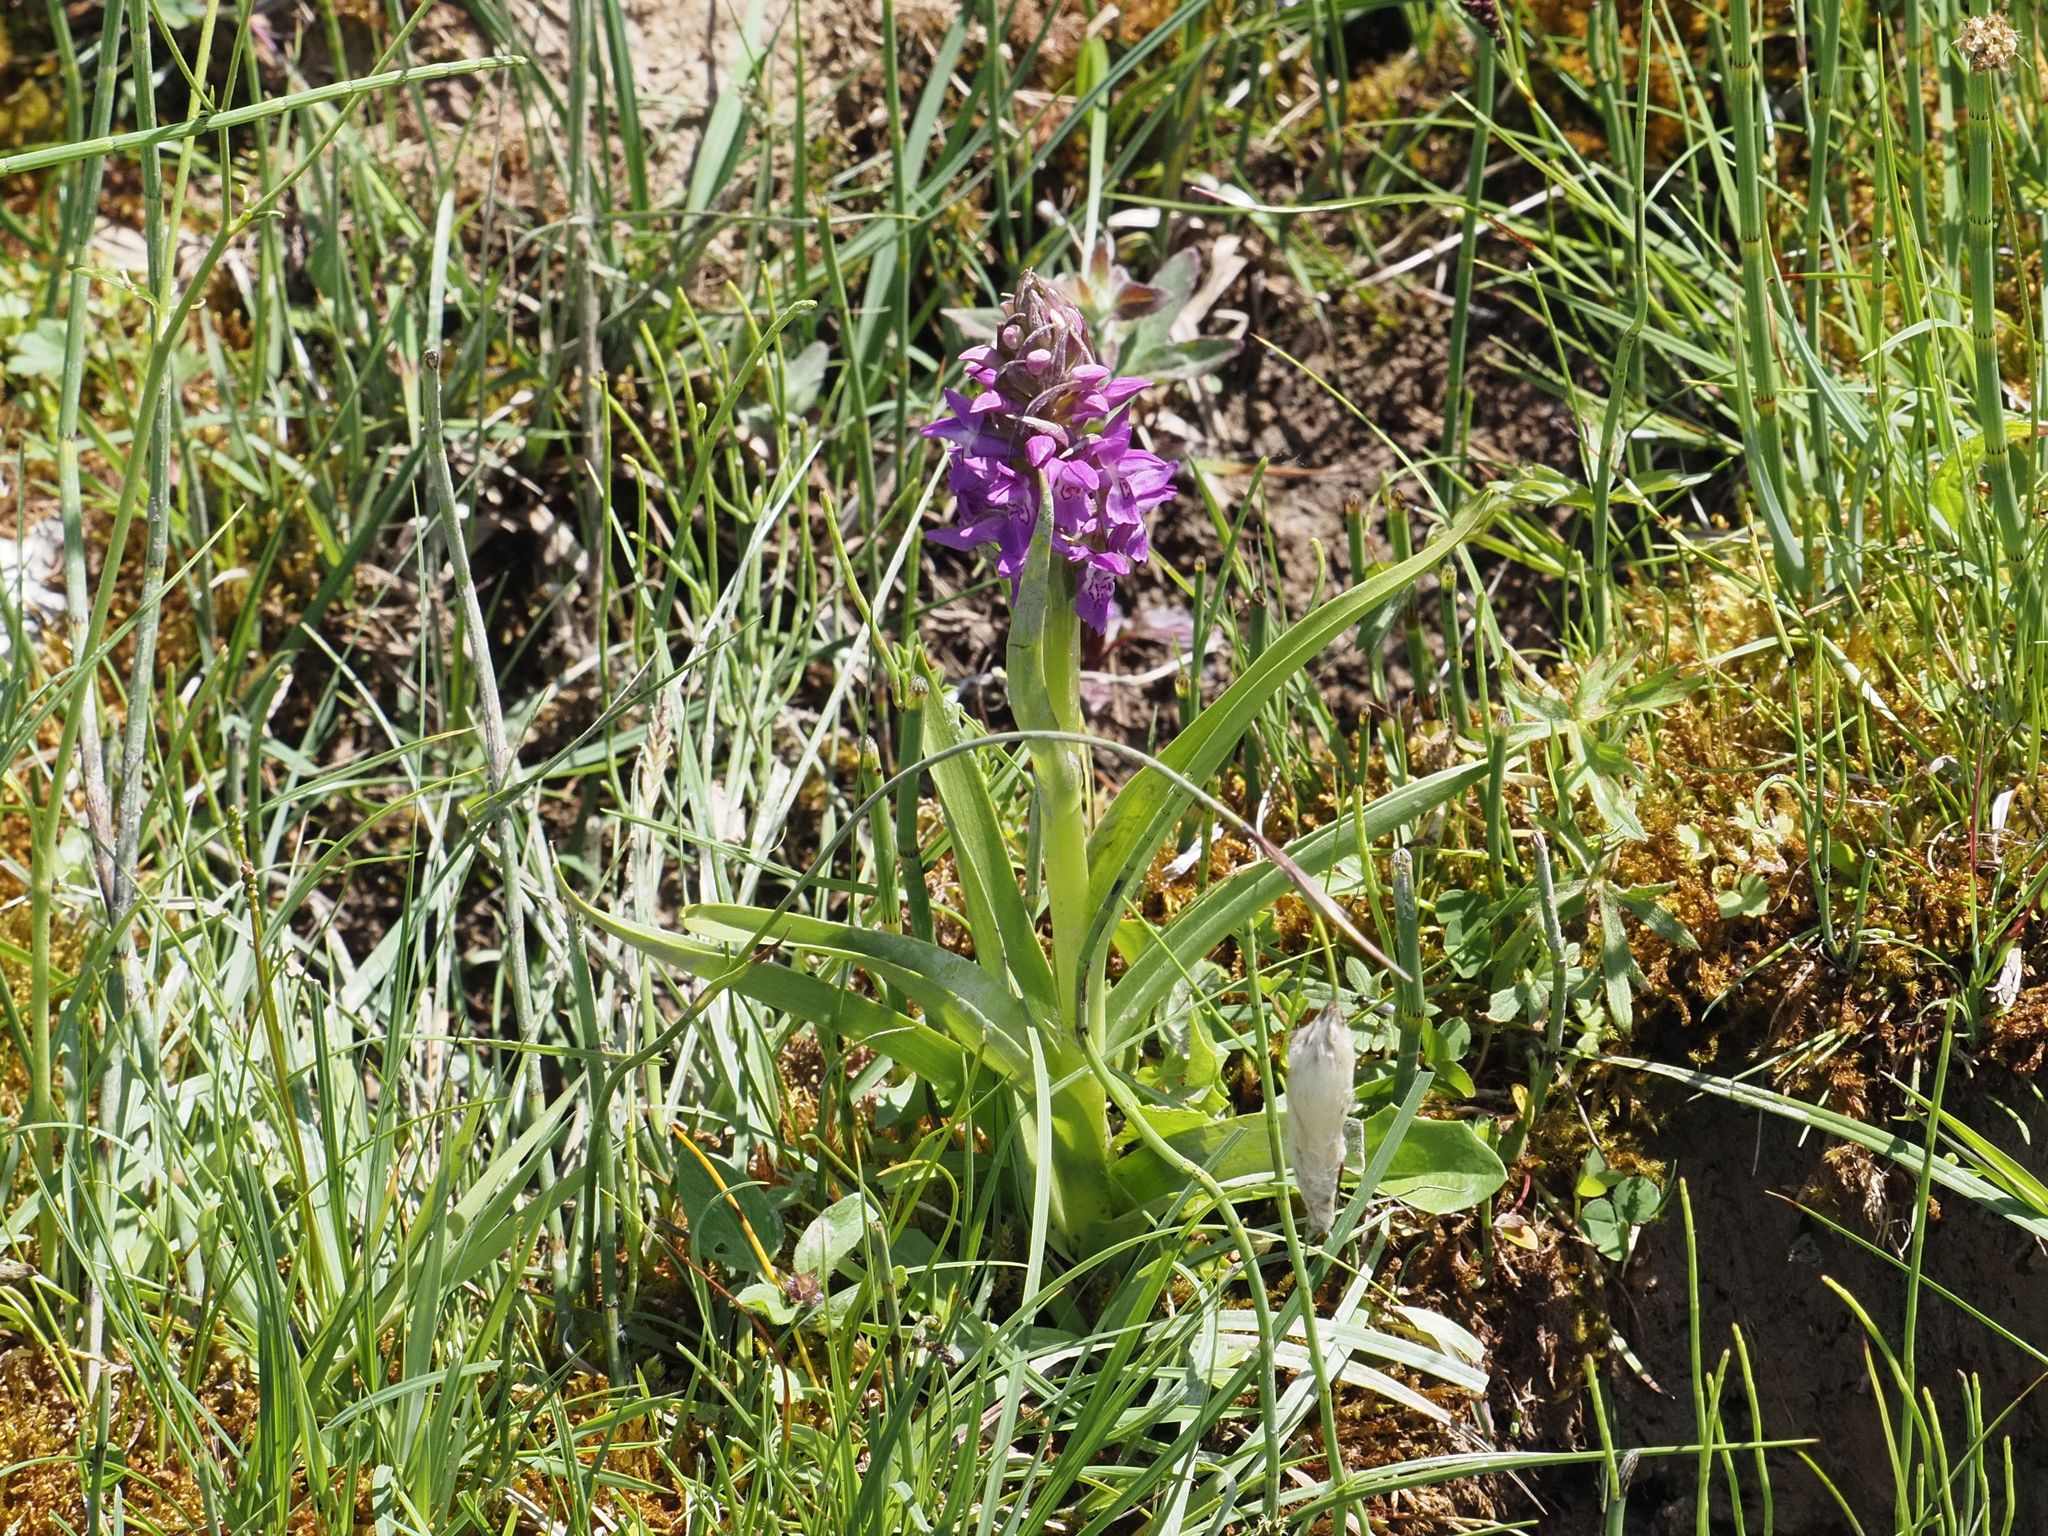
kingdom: Plantae
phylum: Tracheophyta
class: Liliopsida
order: Asparagales
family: Orchidaceae
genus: Dactylorhiza
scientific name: Dactylorhiza majalis
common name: Marsh orchid
